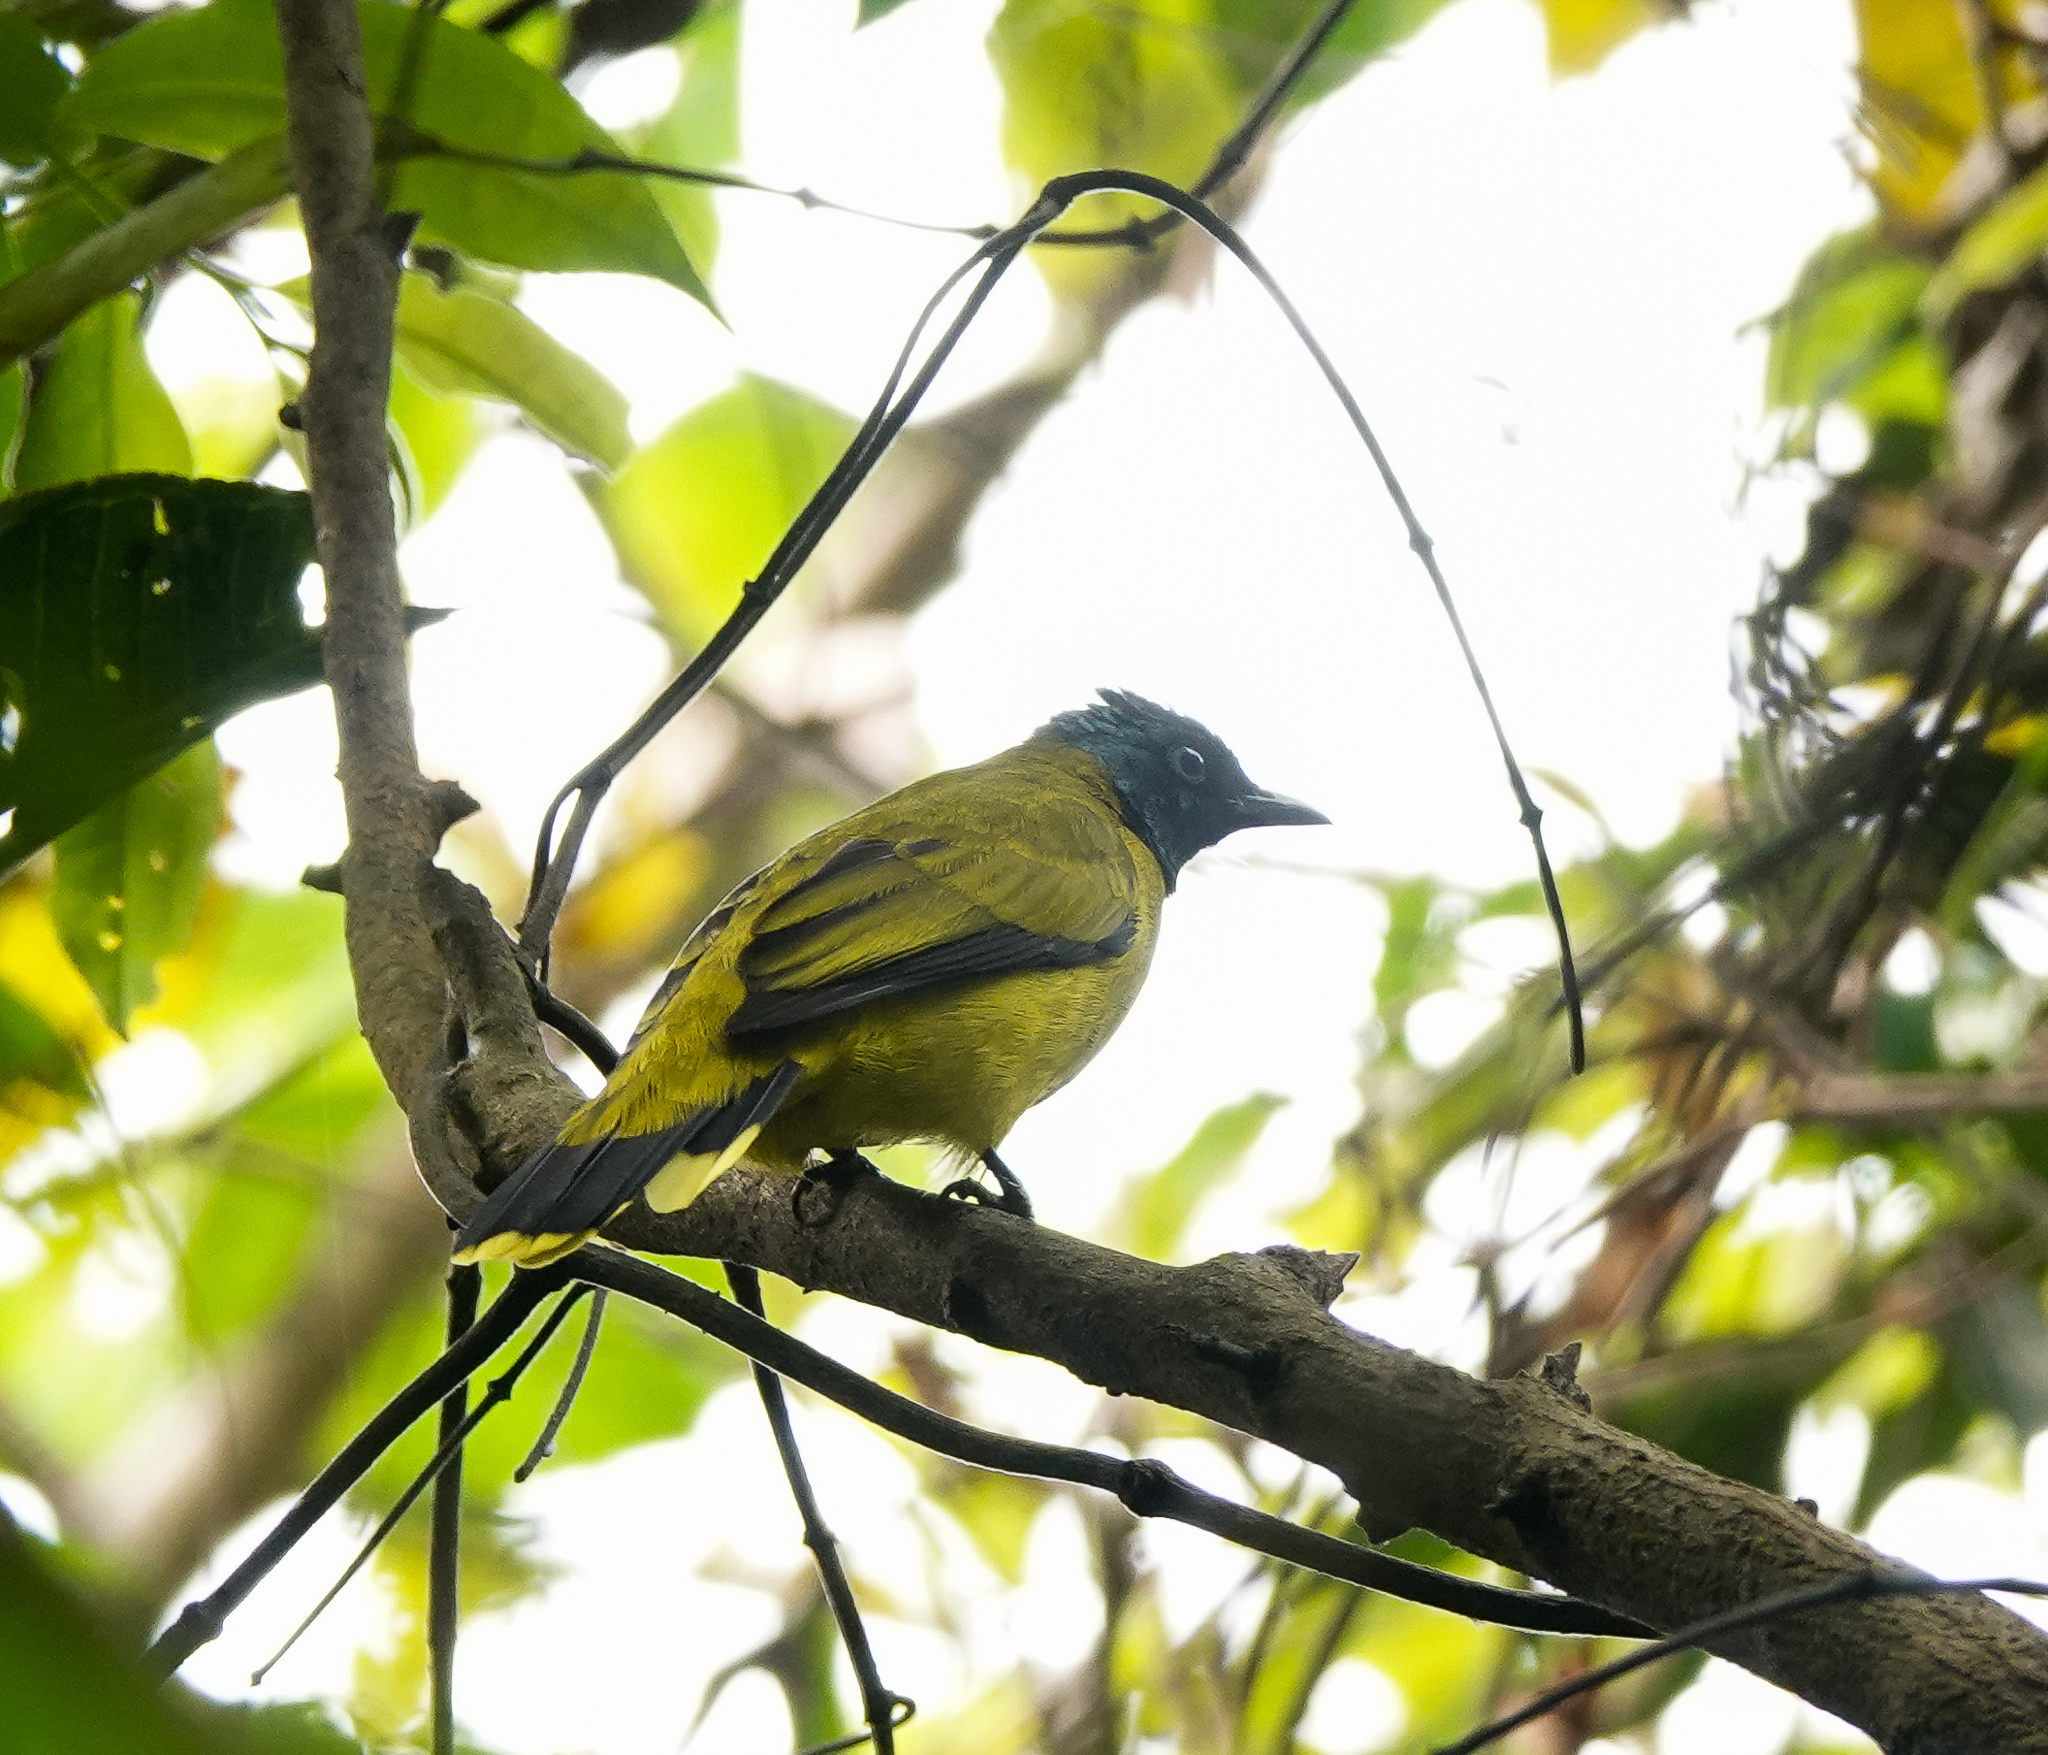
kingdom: Animalia
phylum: Chordata
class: Aves
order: Passeriformes
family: Pycnonotidae
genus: Microtarsus
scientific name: Microtarsus
